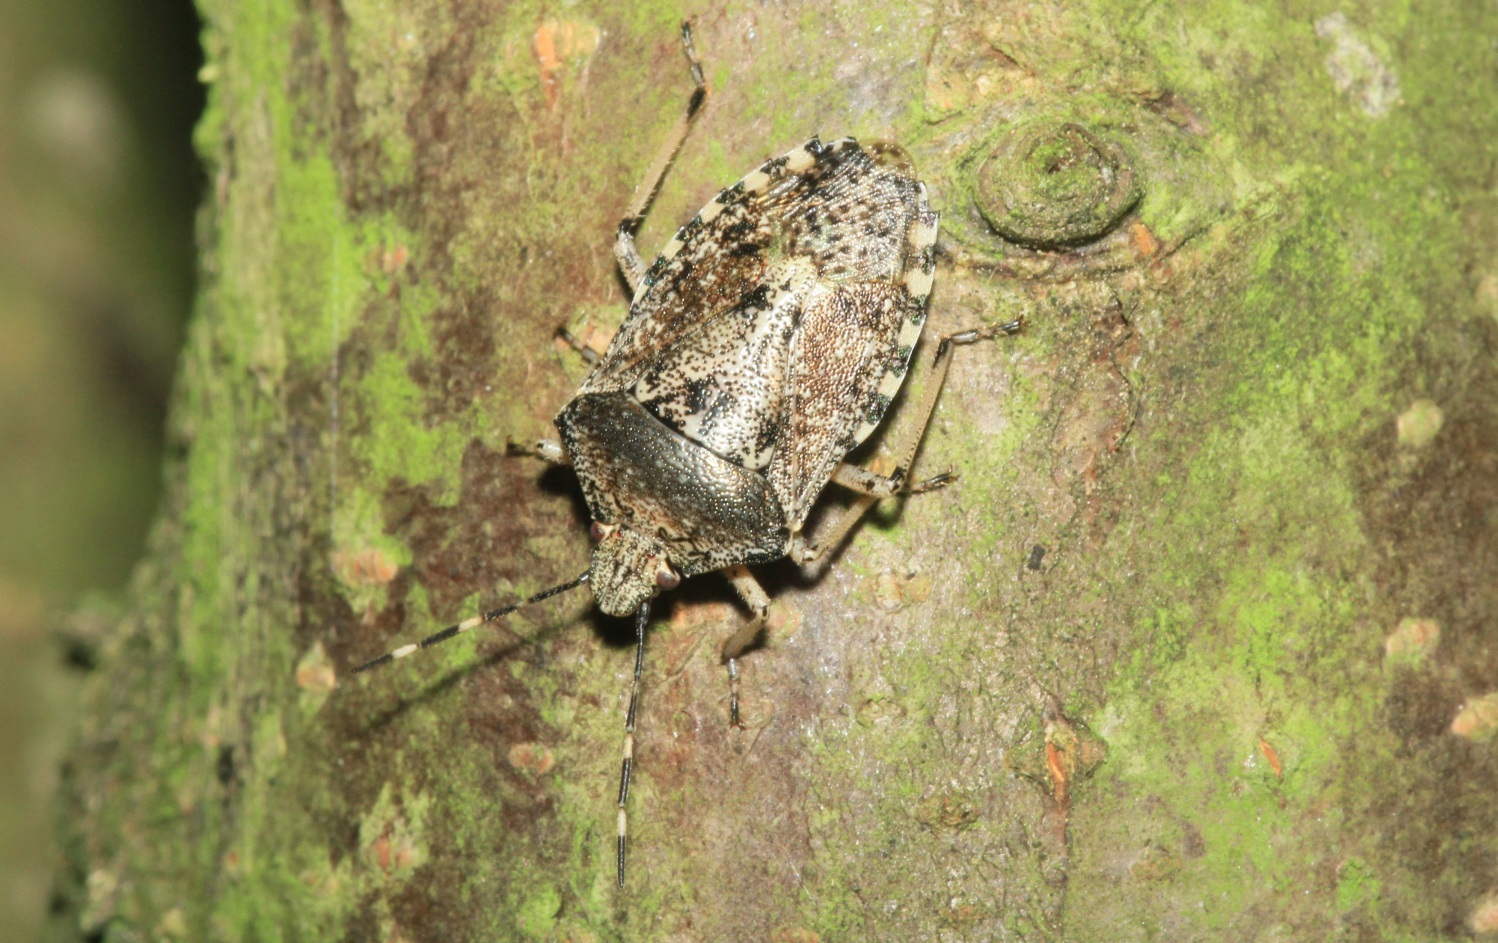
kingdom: Animalia
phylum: Arthropoda
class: Insecta
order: Hemiptera
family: Pentatomidae
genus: Rhaphigaster
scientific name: Rhaphigaster nebulosa
